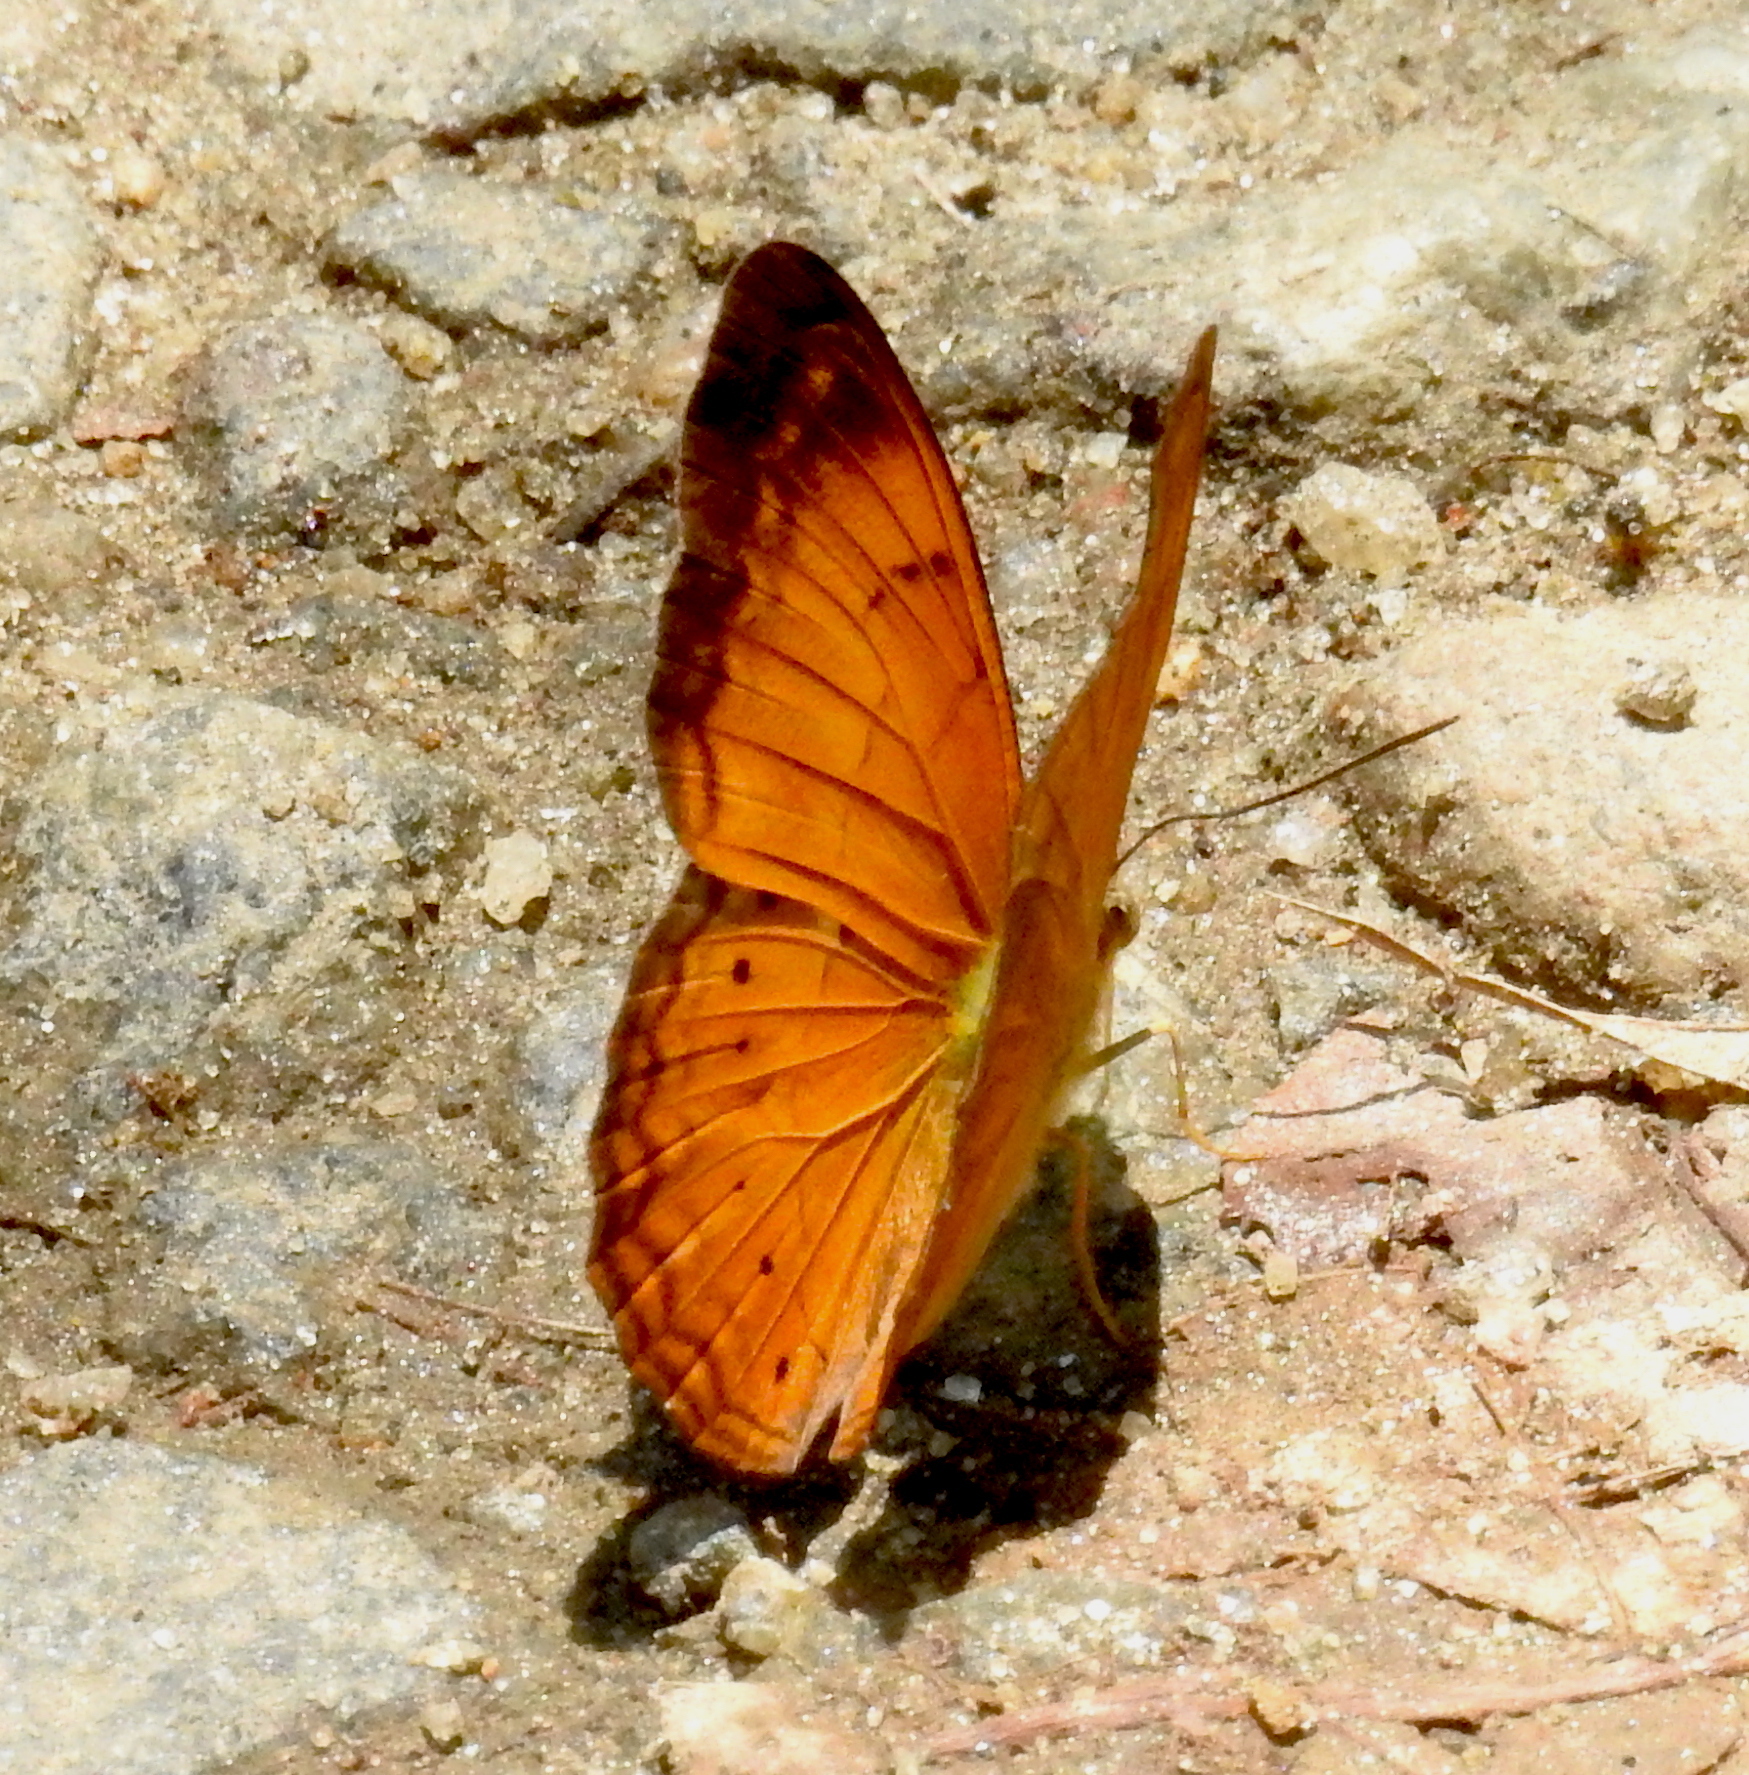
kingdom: Animalia
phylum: Arthropoda
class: Insecta
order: Lepidoptera
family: Nymphalidae
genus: Cirrochroa
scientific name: Cirrochroa thais
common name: Tamil yeoman
